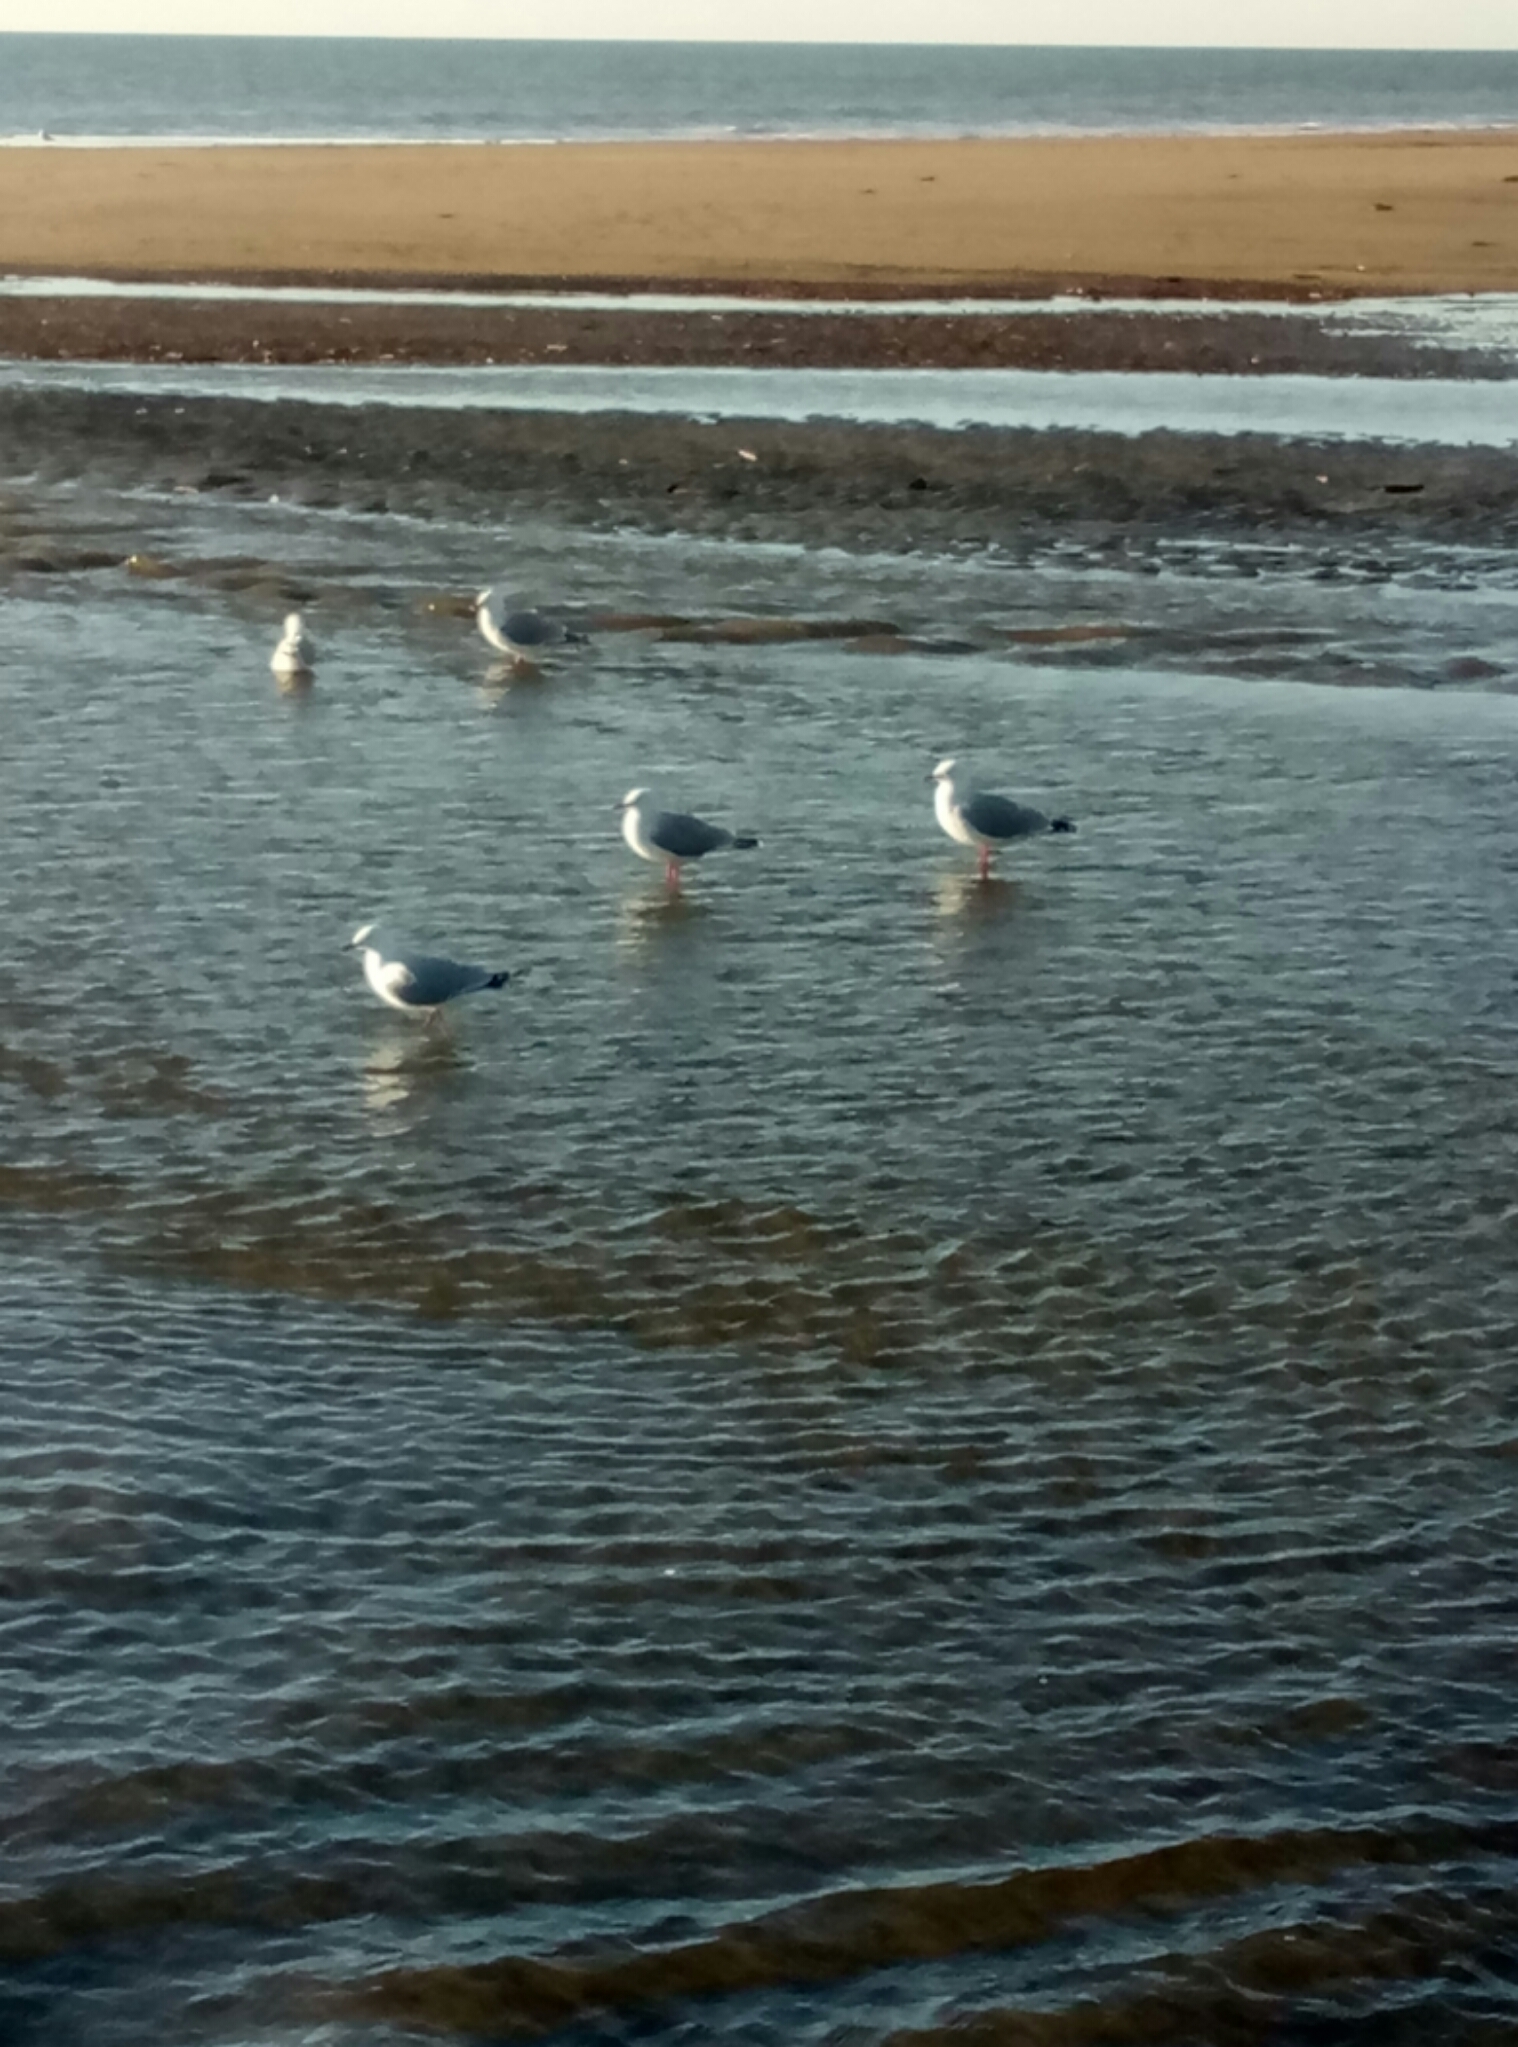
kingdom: Animalia
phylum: Chordata
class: Aves
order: Charadriiformes
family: Laridae
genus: Chroicocephalus
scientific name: Chroicocephalus novaehollandiae
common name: Silver gull
